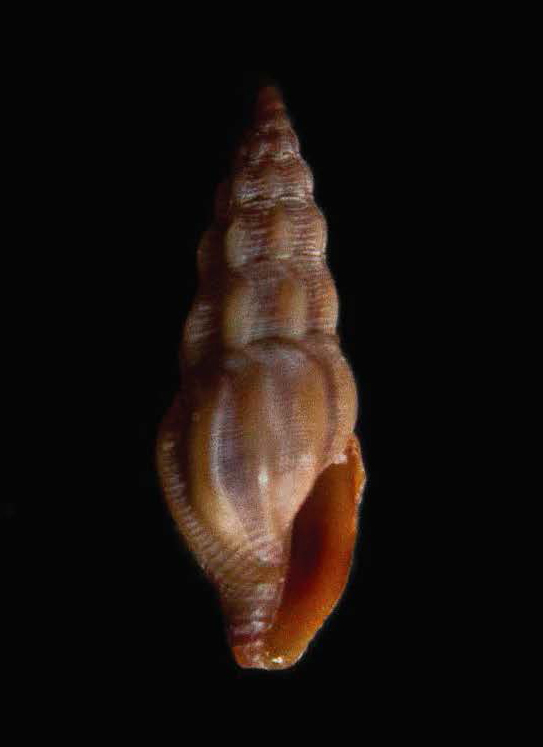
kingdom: Animalia
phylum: Mollusca
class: Gastropoda
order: Neogastropoda
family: Mangeliidae
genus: Bela
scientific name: Bela nebula
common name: Nebular needle conch
